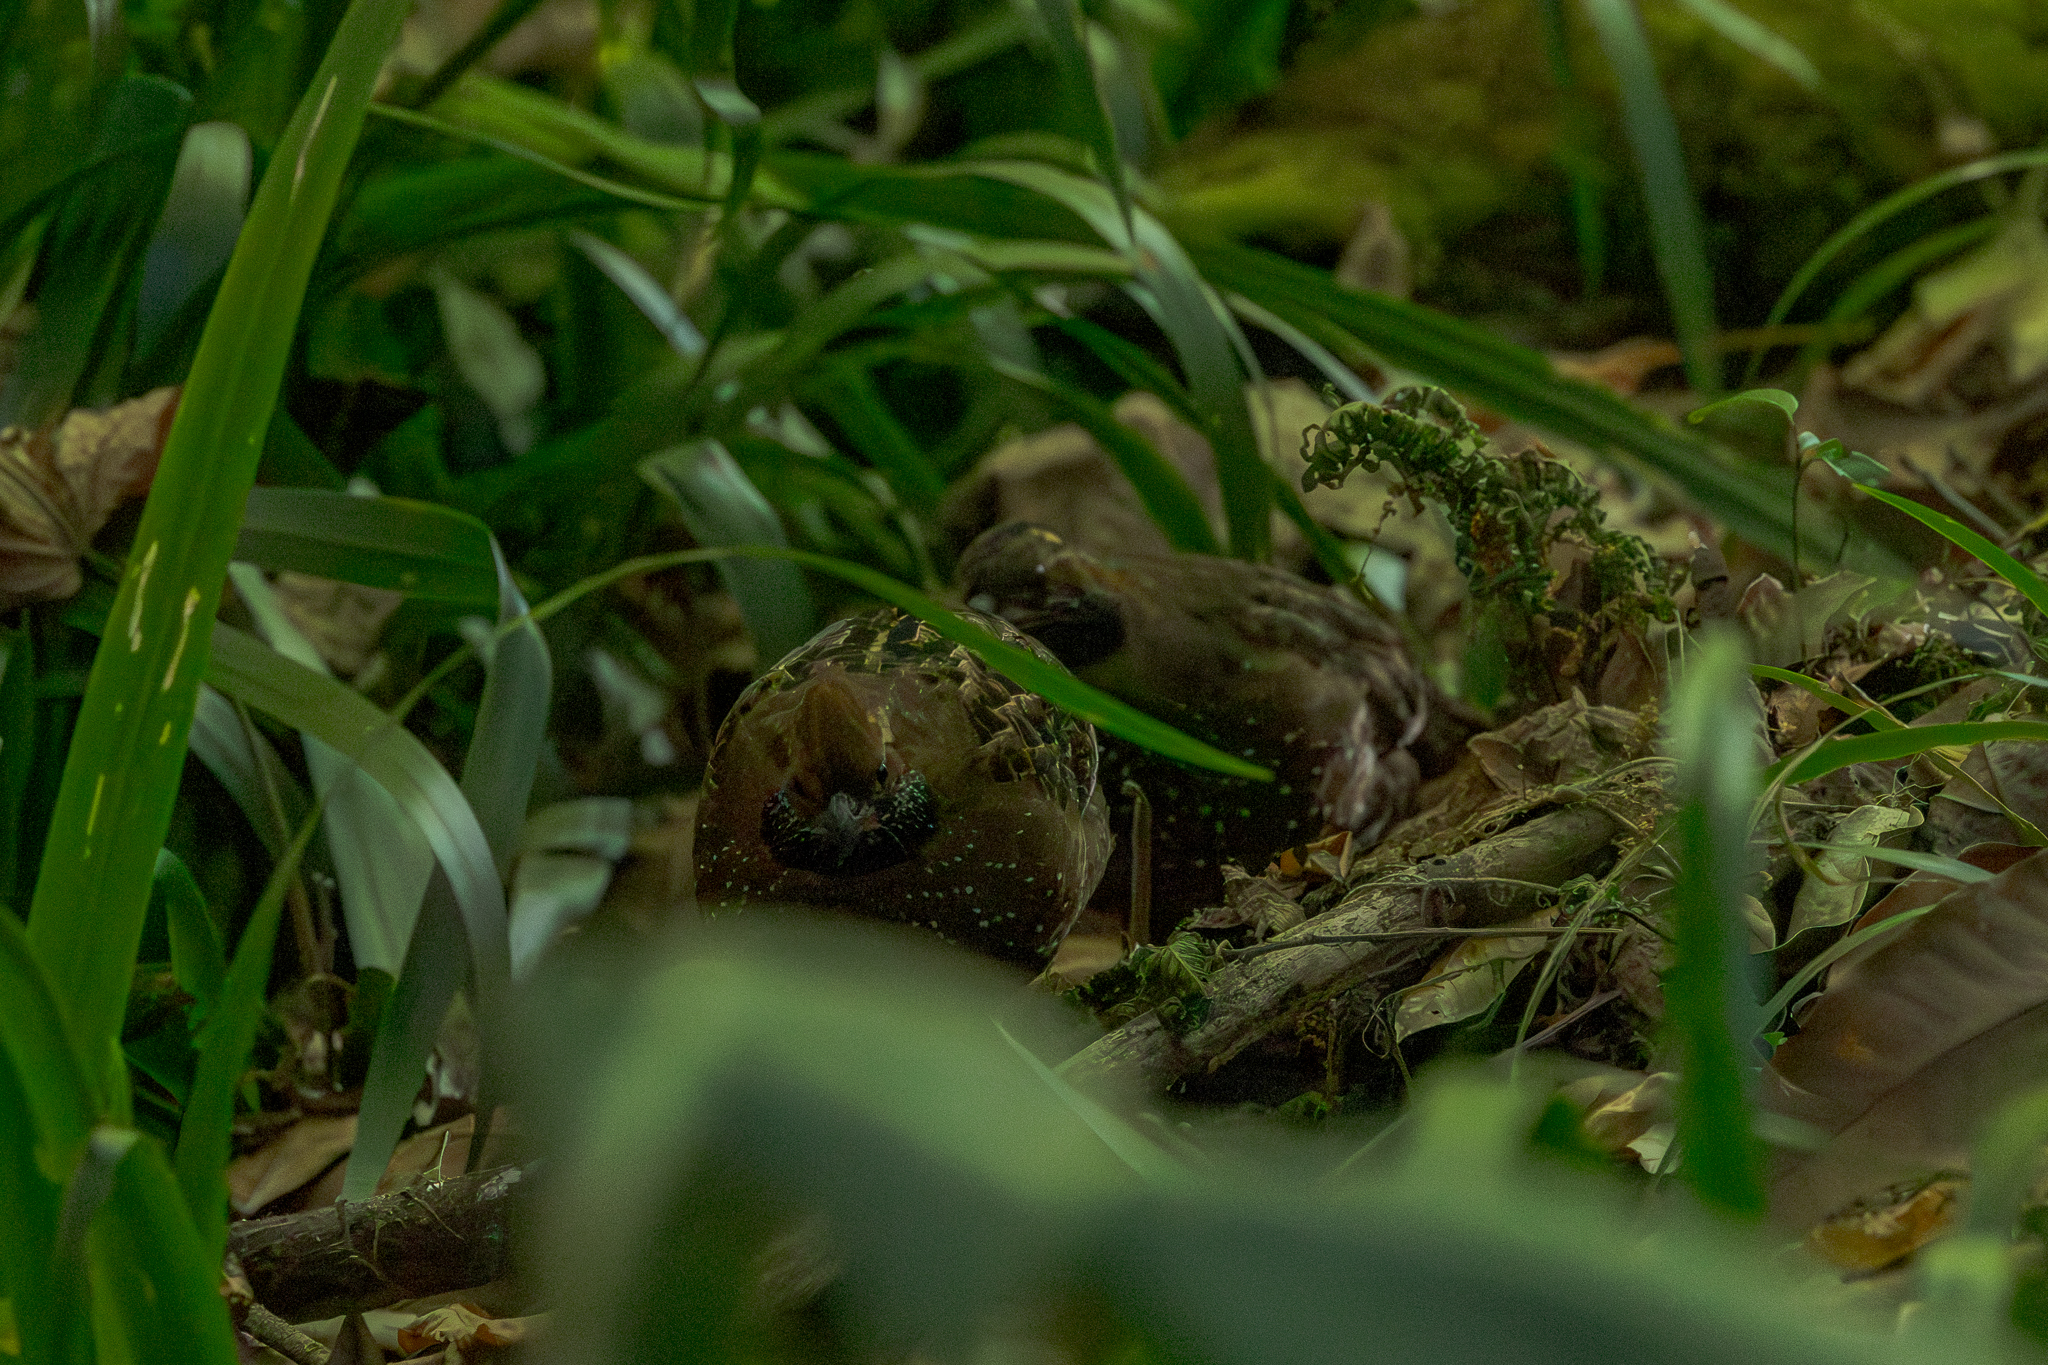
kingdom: Animalia
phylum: Chordata
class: Aves
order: Galliformes
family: Odontophoridae
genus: Odontophorus
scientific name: Odontophorus guttatus
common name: Spotted wood-quail
